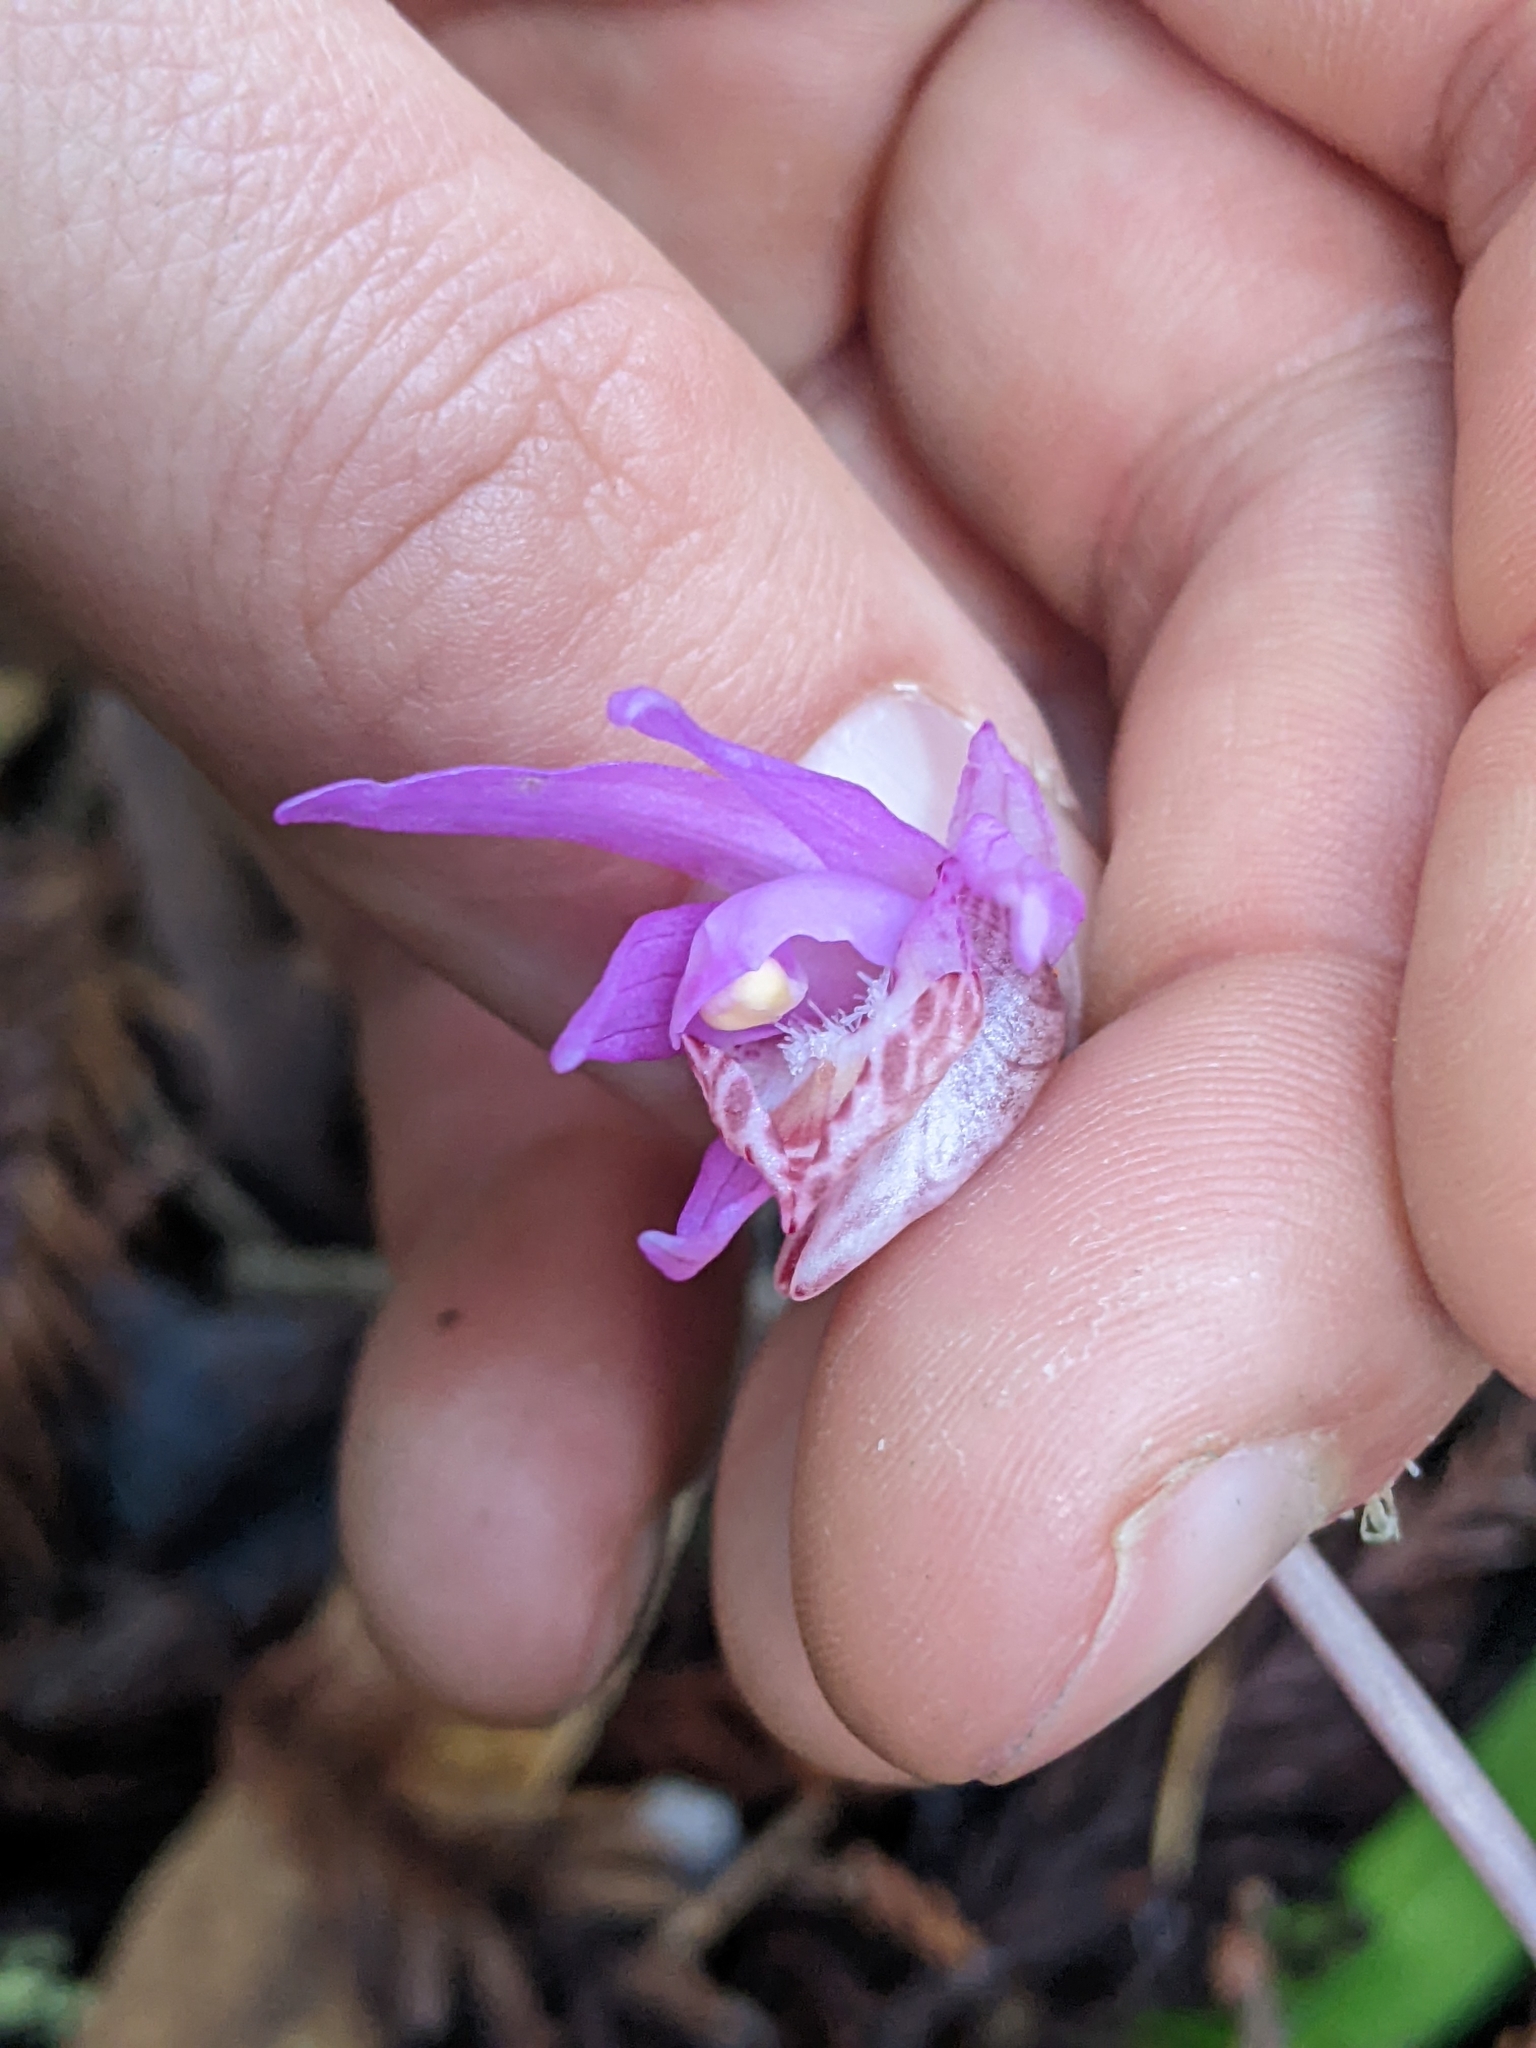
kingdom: Plantae
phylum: Tracheophyta
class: Liliopsida
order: Asparagales
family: Orchidaceae
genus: Calypso
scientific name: Calypso bulbosa
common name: Calypso
